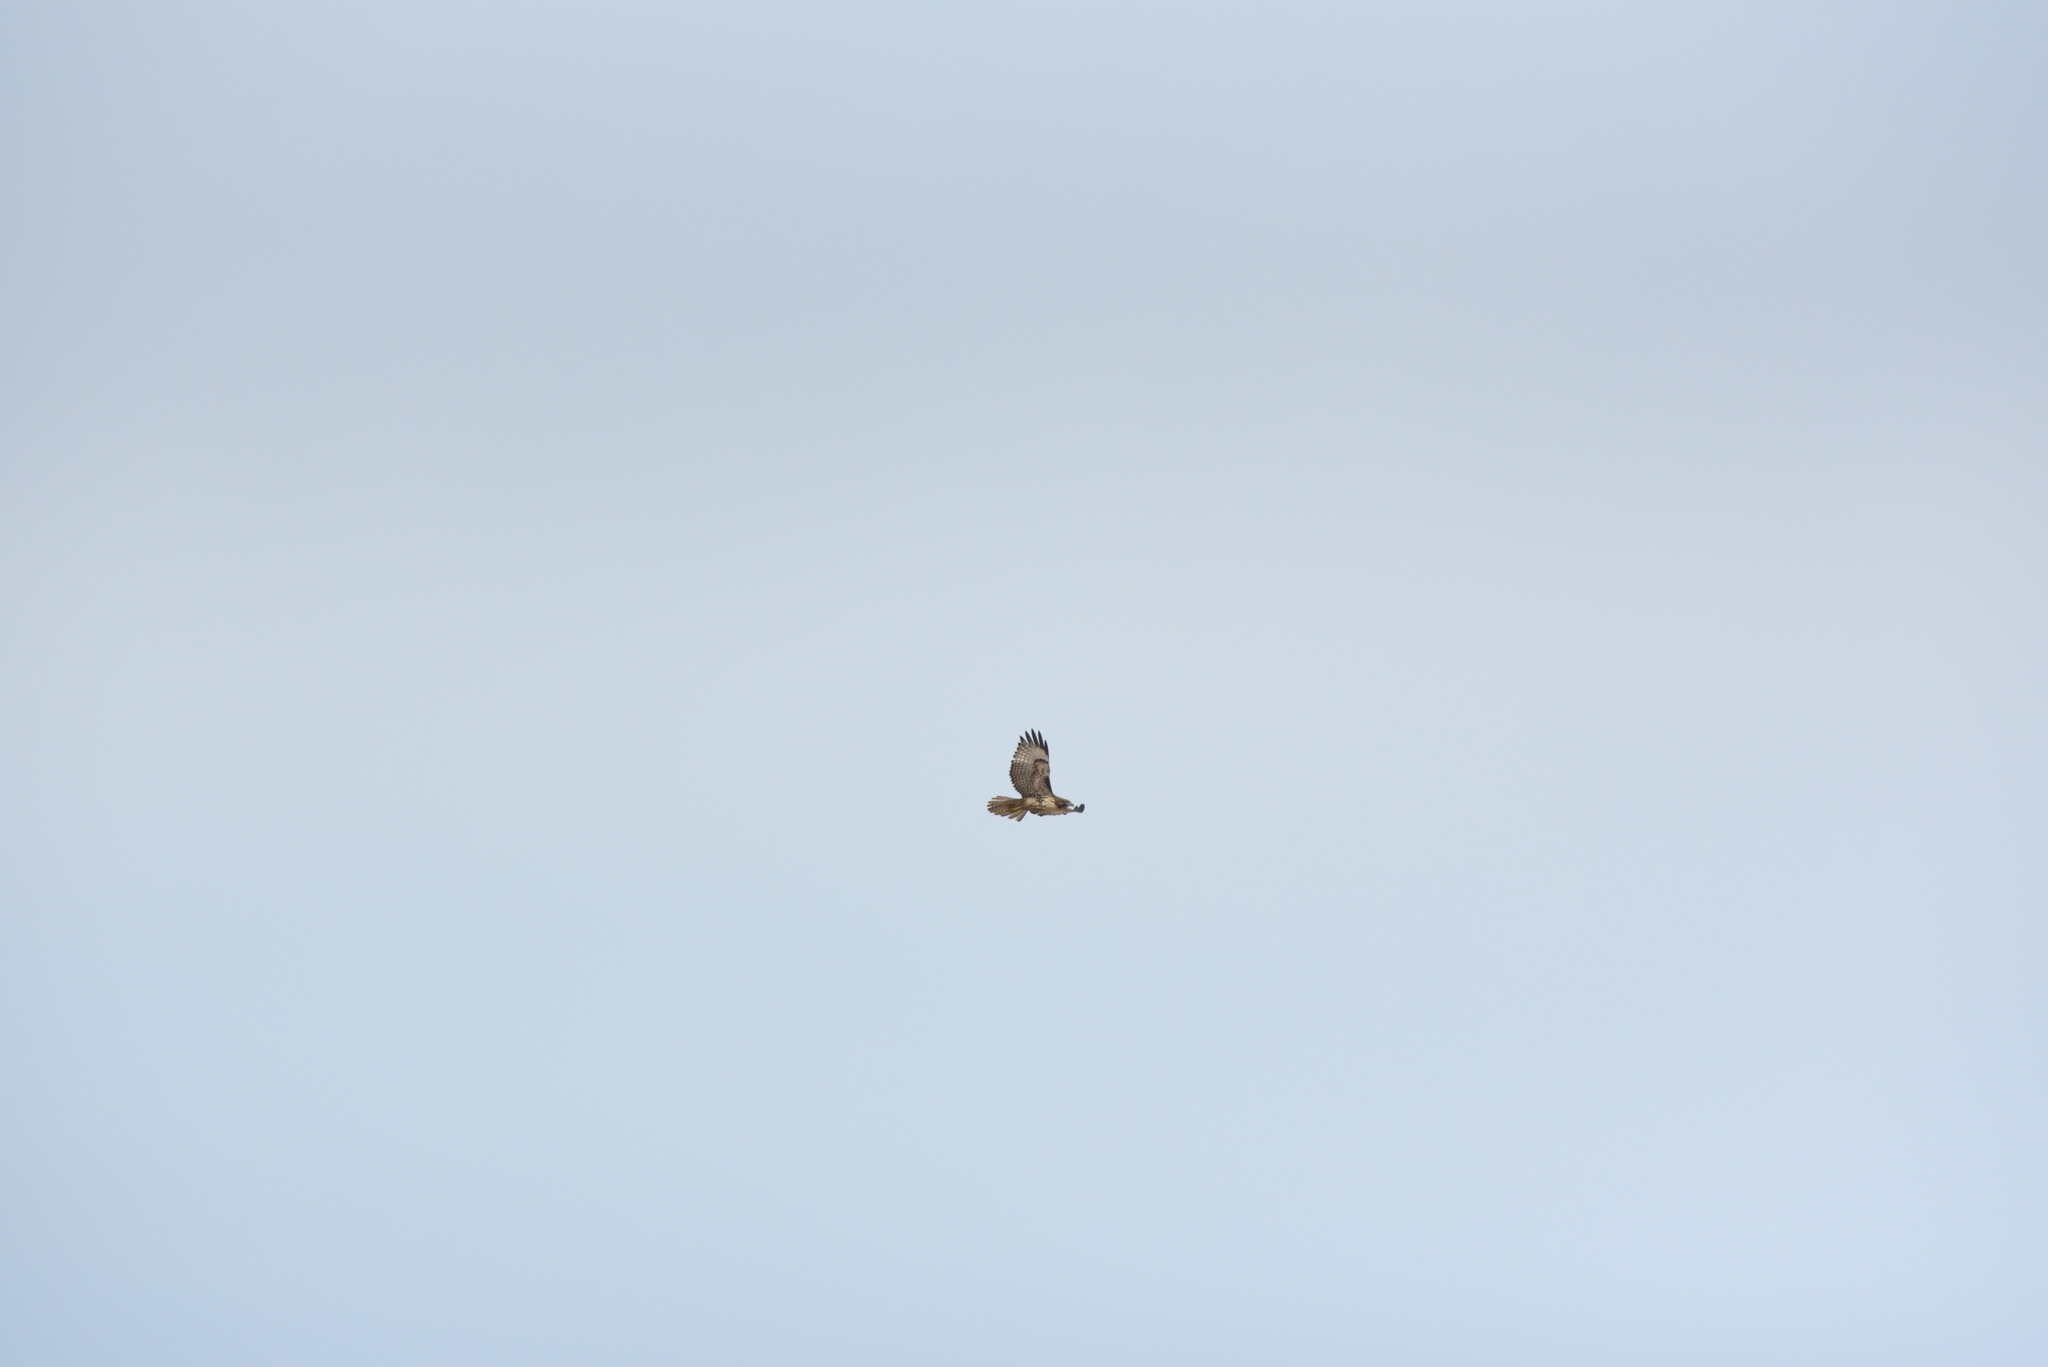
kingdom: Animalia
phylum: Chordata
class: Aves
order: Accipitriformes
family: Accipitridae
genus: Buteo
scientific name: Buteo jamaicensis
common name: Red-tailed hawk
